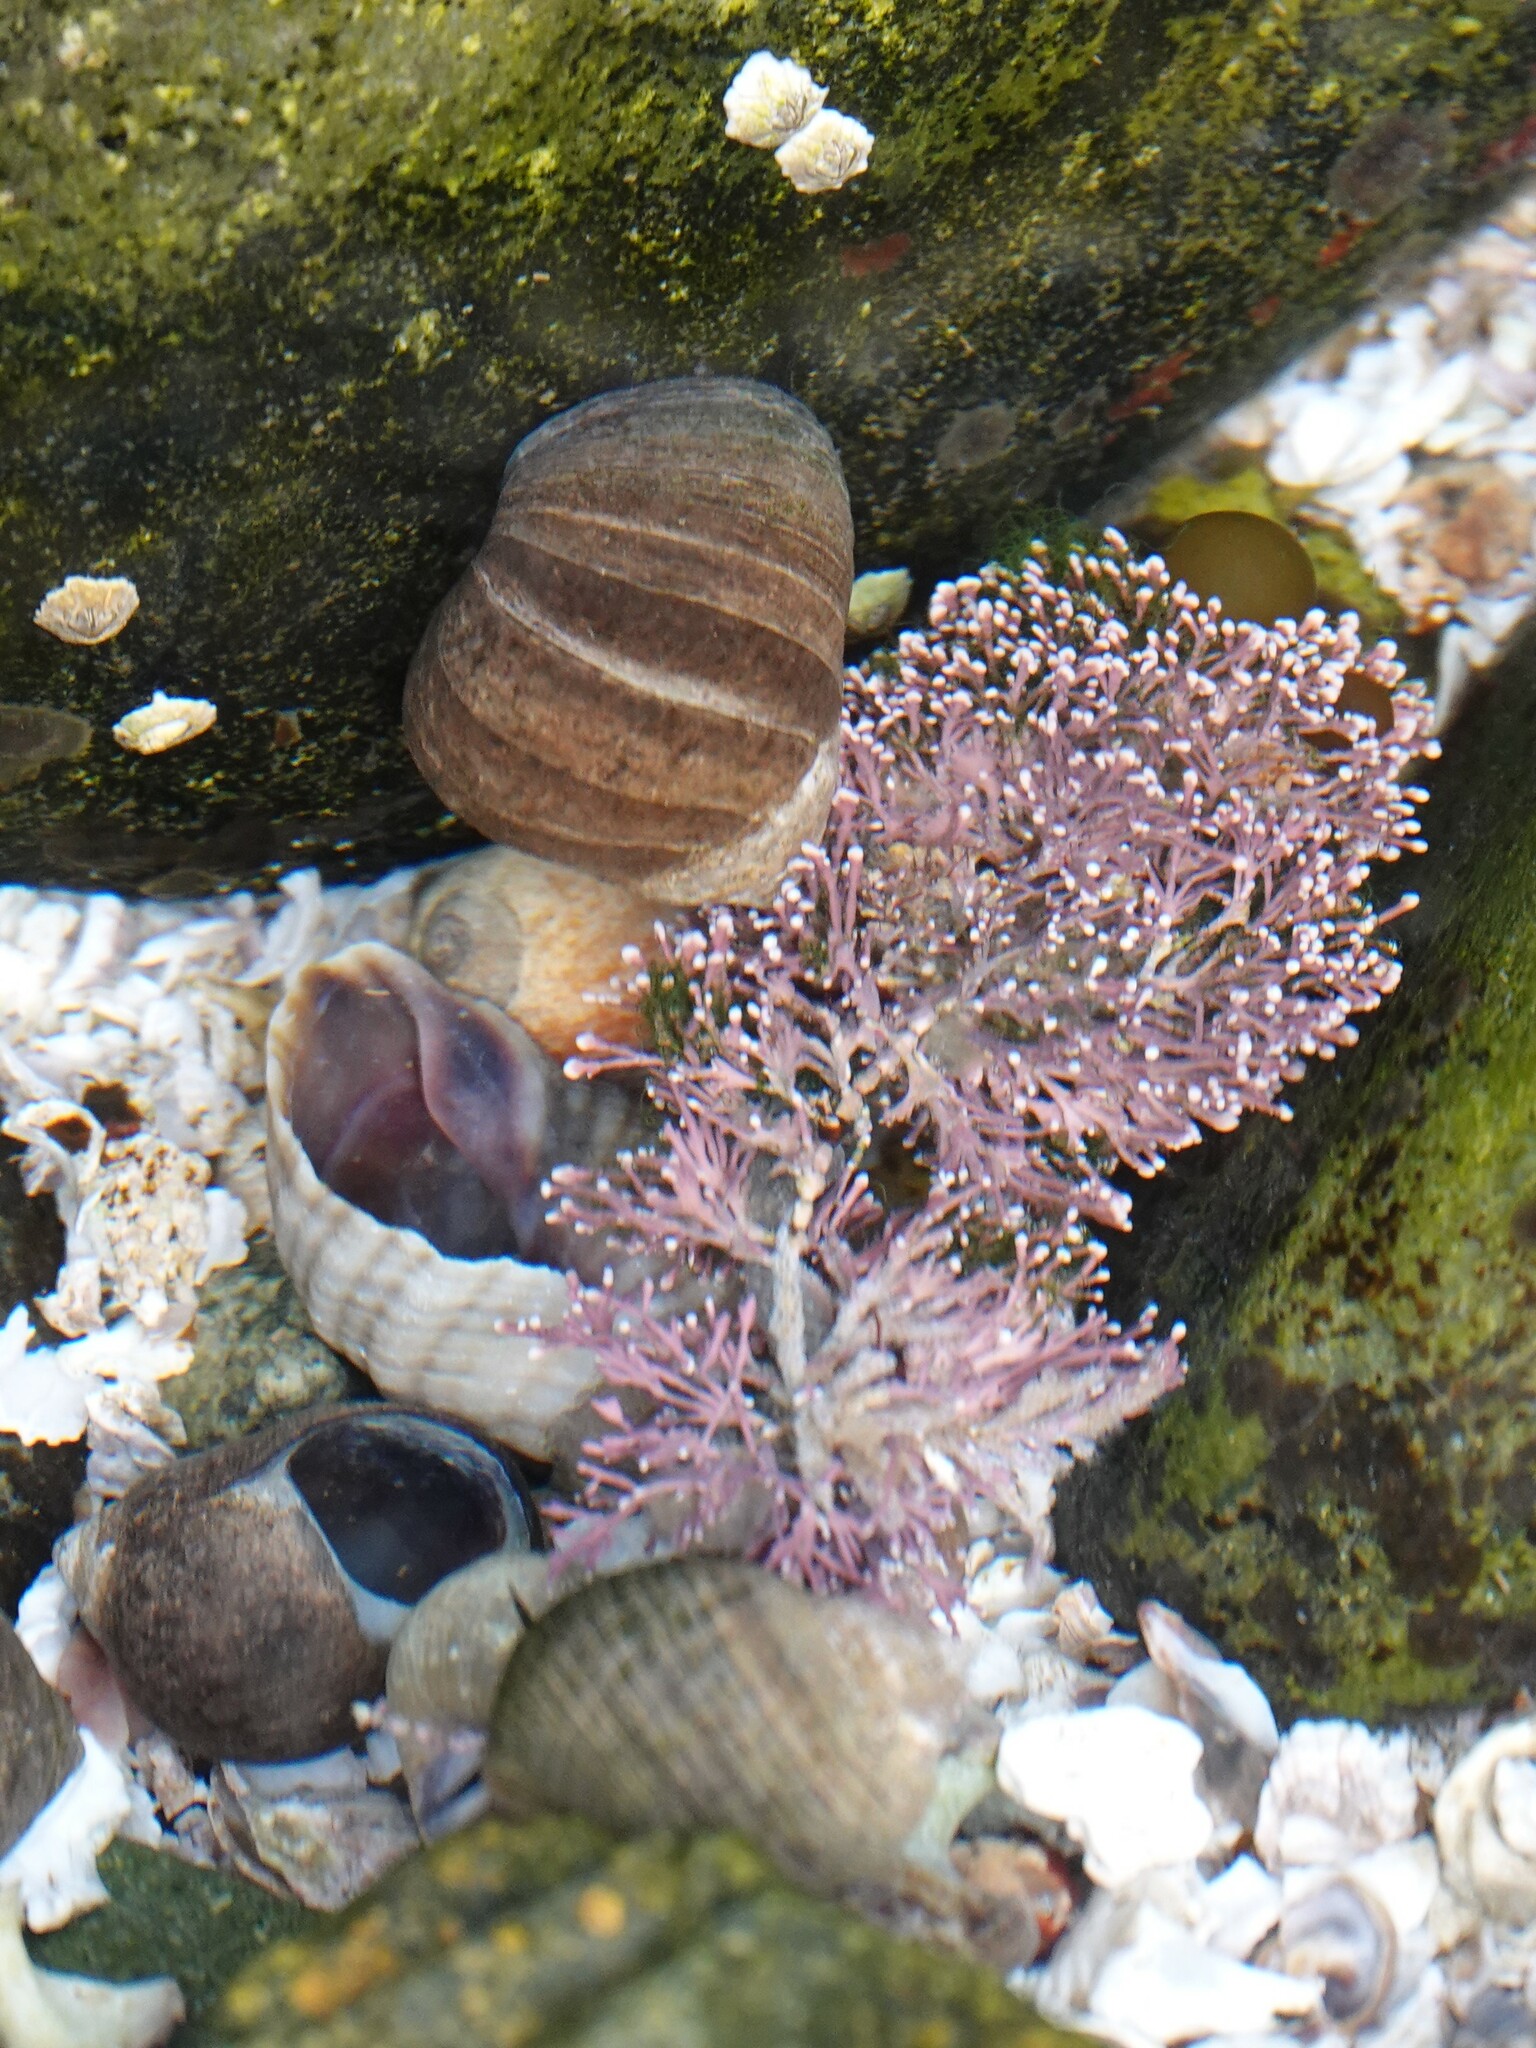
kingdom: Plantae
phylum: Rhodophyta
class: Florideophyceae
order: Corallinales
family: Corallinaceae
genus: Corallina
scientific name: Corallina officinalis
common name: Coral weed
